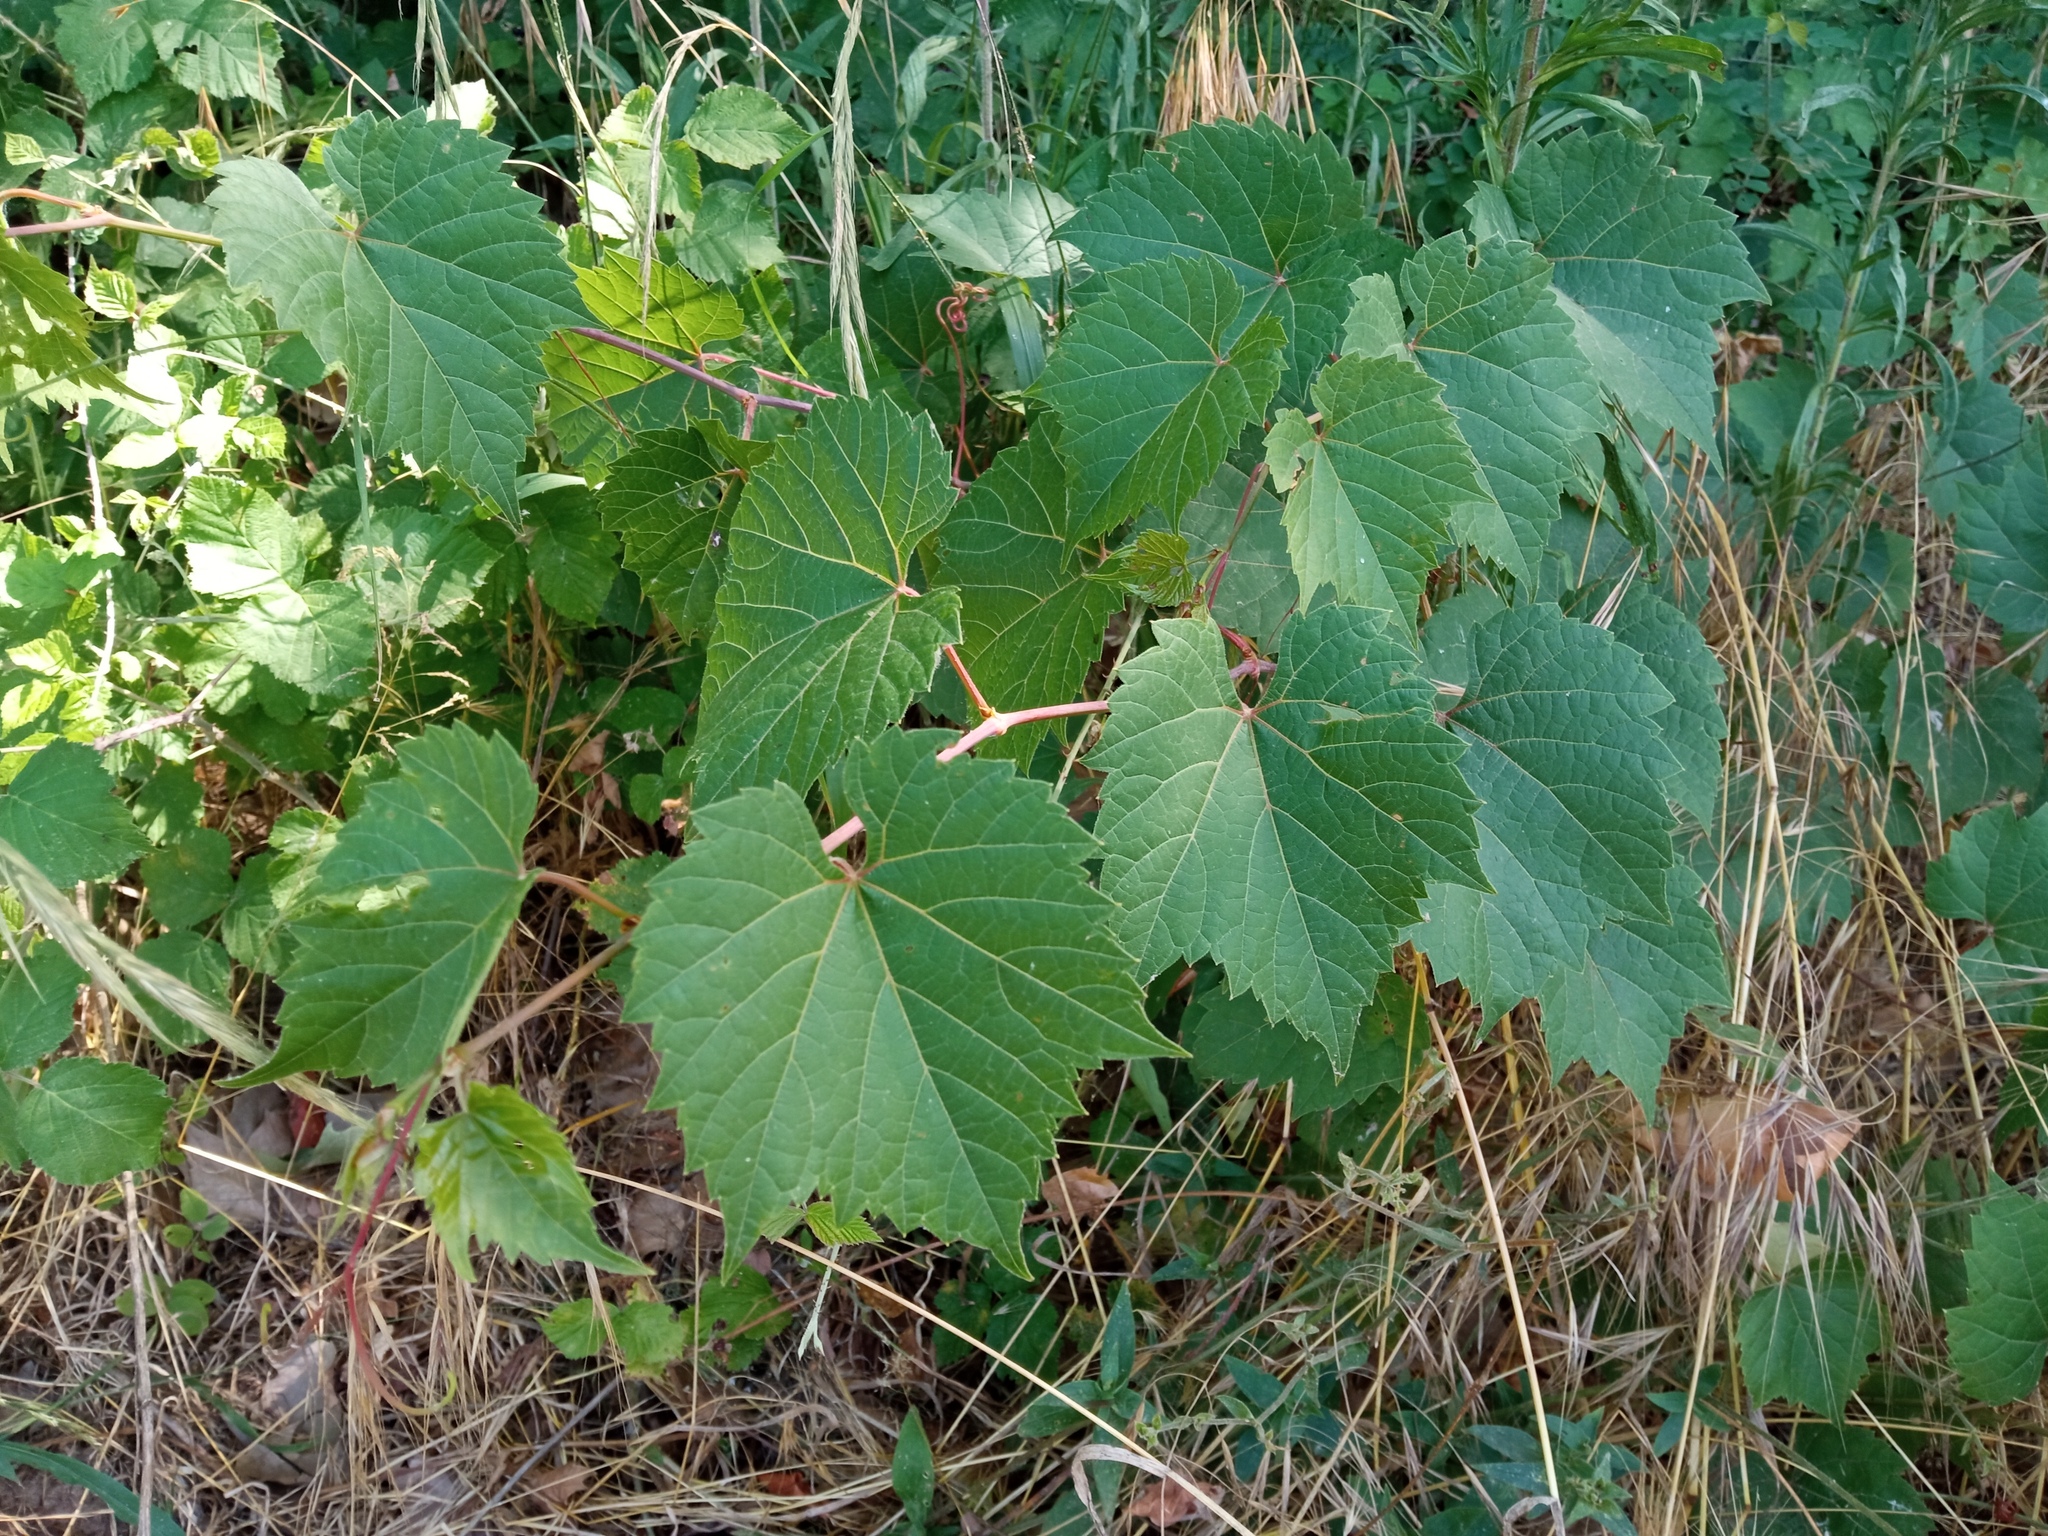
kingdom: Plantae
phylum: Tracheophyta
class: Magnoliopsida
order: Vitales
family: Vitaceae
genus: Vitis
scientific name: Vitis riparia
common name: Frost grape
